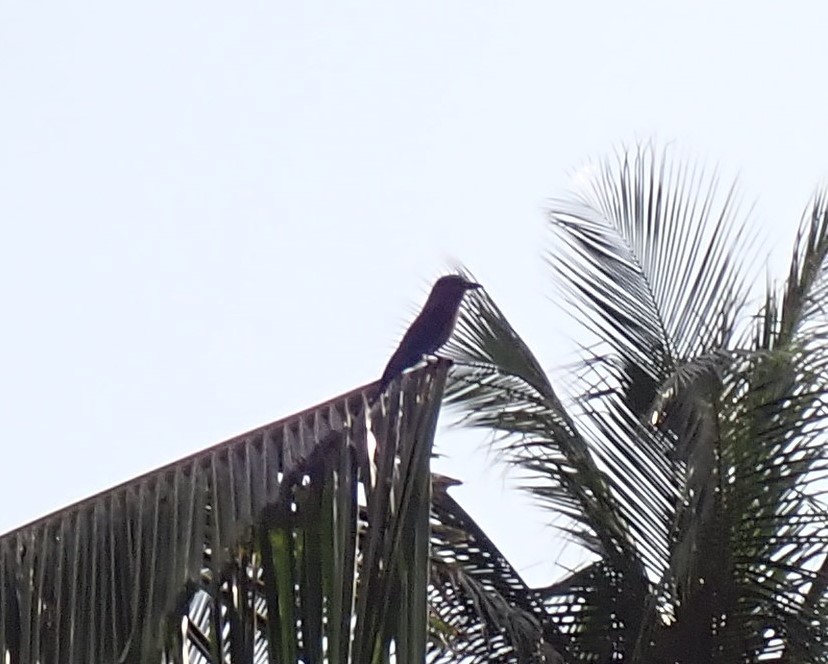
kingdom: Animalia
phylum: Chordata
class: Aves
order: Coraciiformes
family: Coraciidae
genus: Coracias
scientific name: Coracias affinis
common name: Indochinese roller
